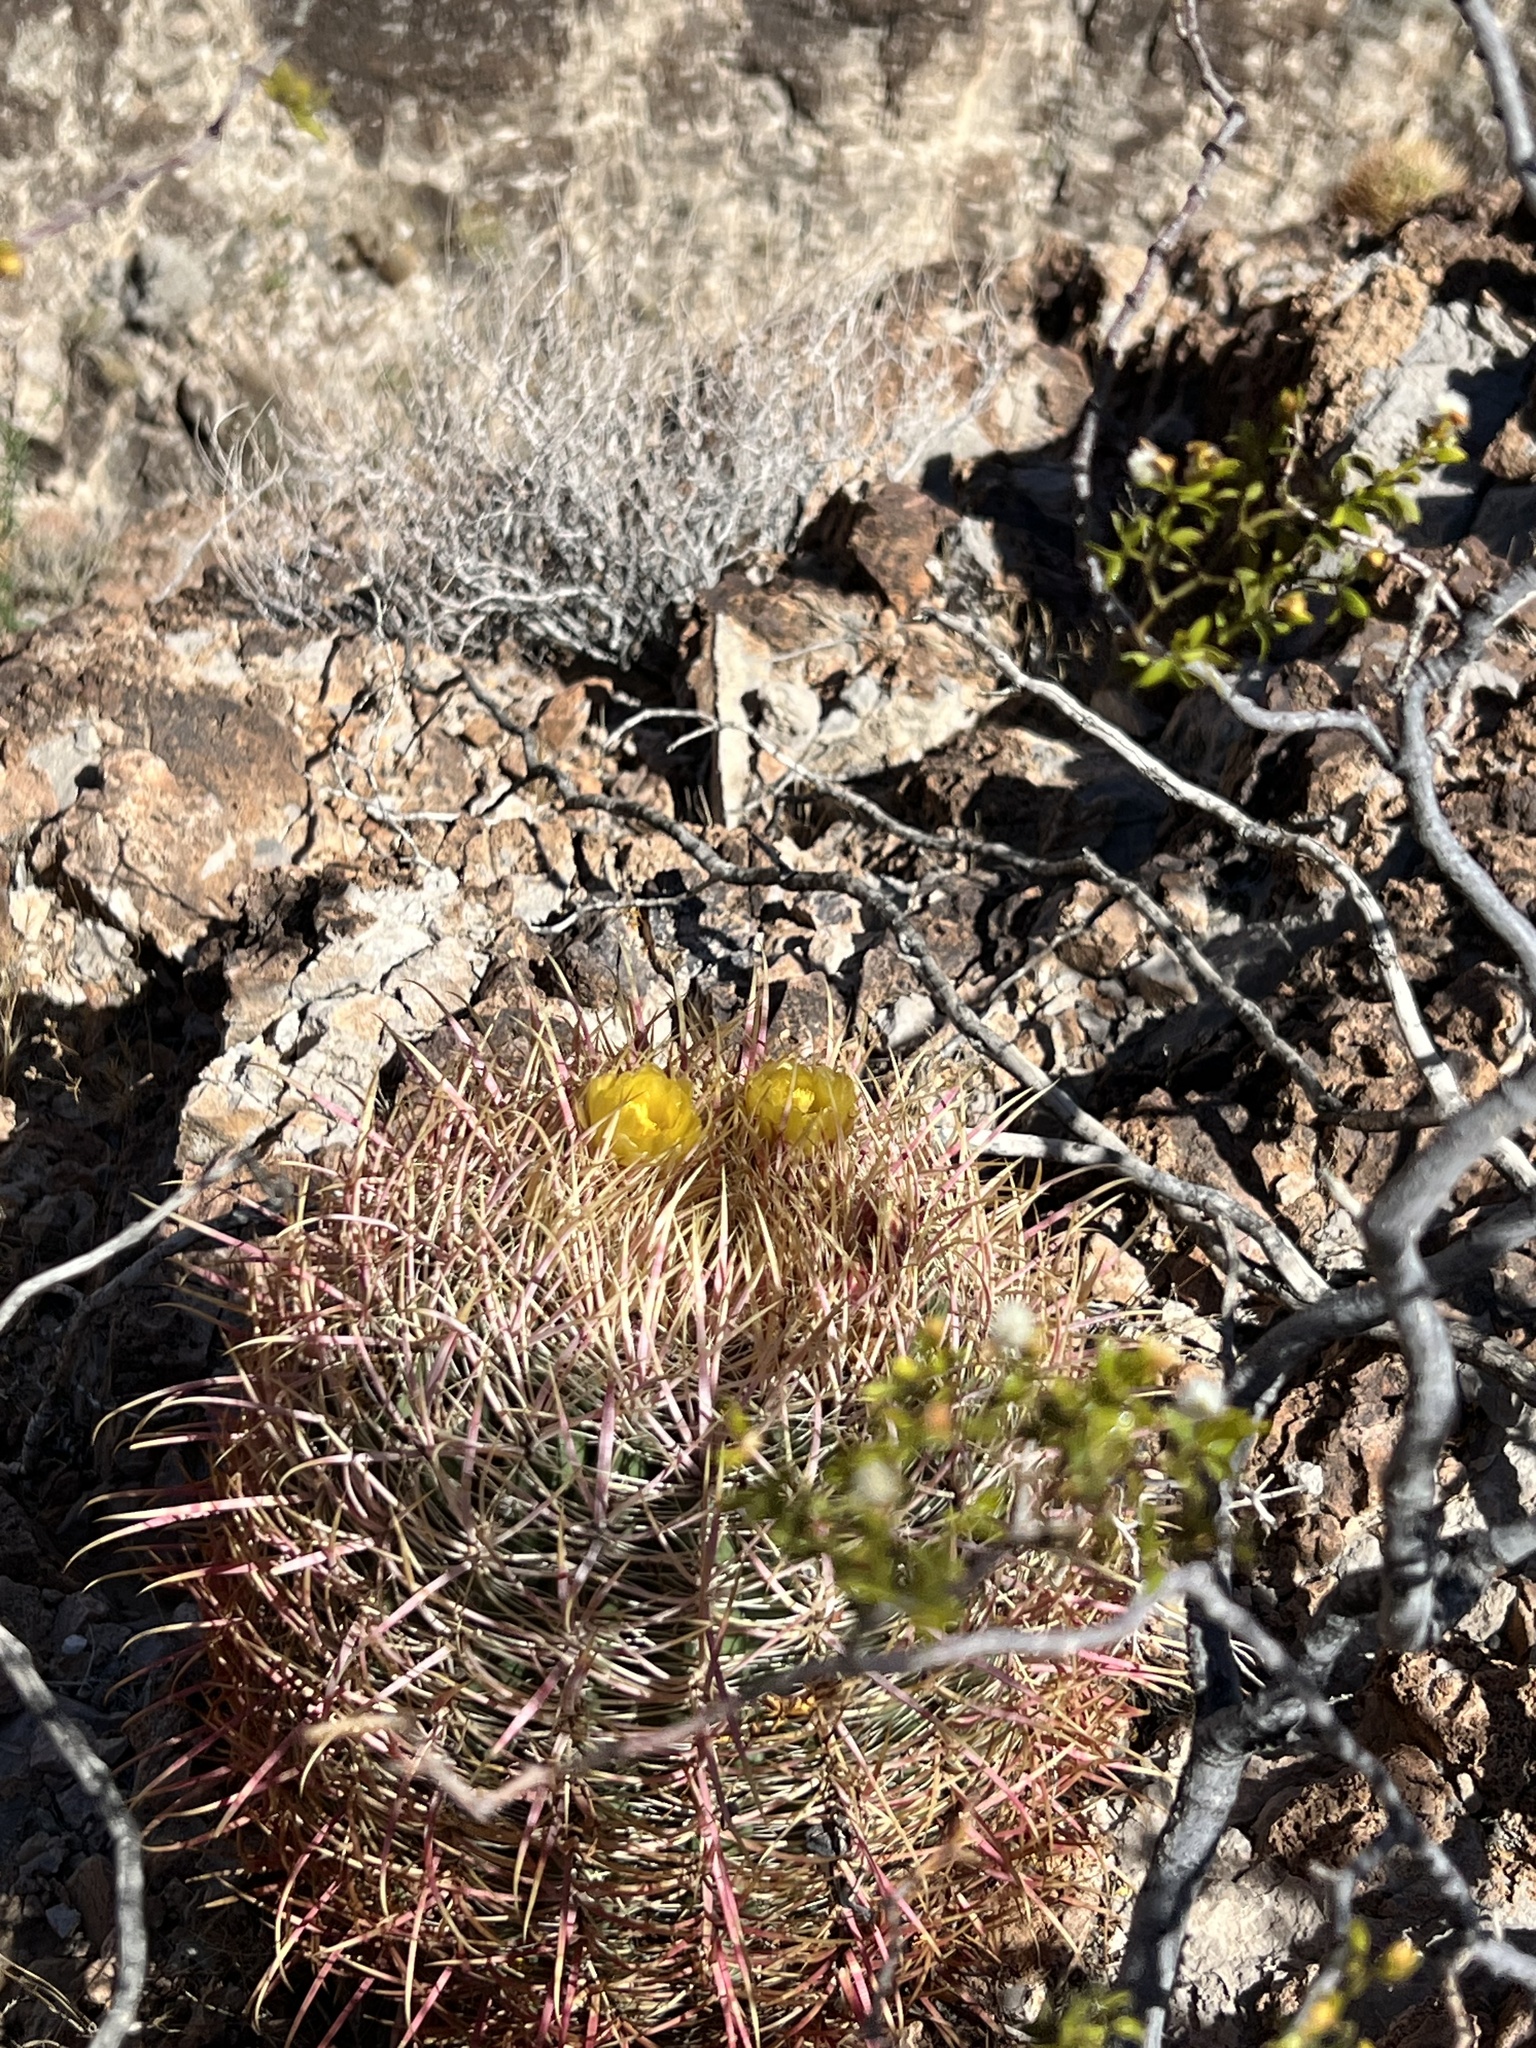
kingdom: Plantae
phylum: Tracheophyta
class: Magnoliopsida
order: Caryophyllales
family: Cactaceae
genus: Ferocactus
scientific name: Ferocactus cylindraceus
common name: California barrel cactus
